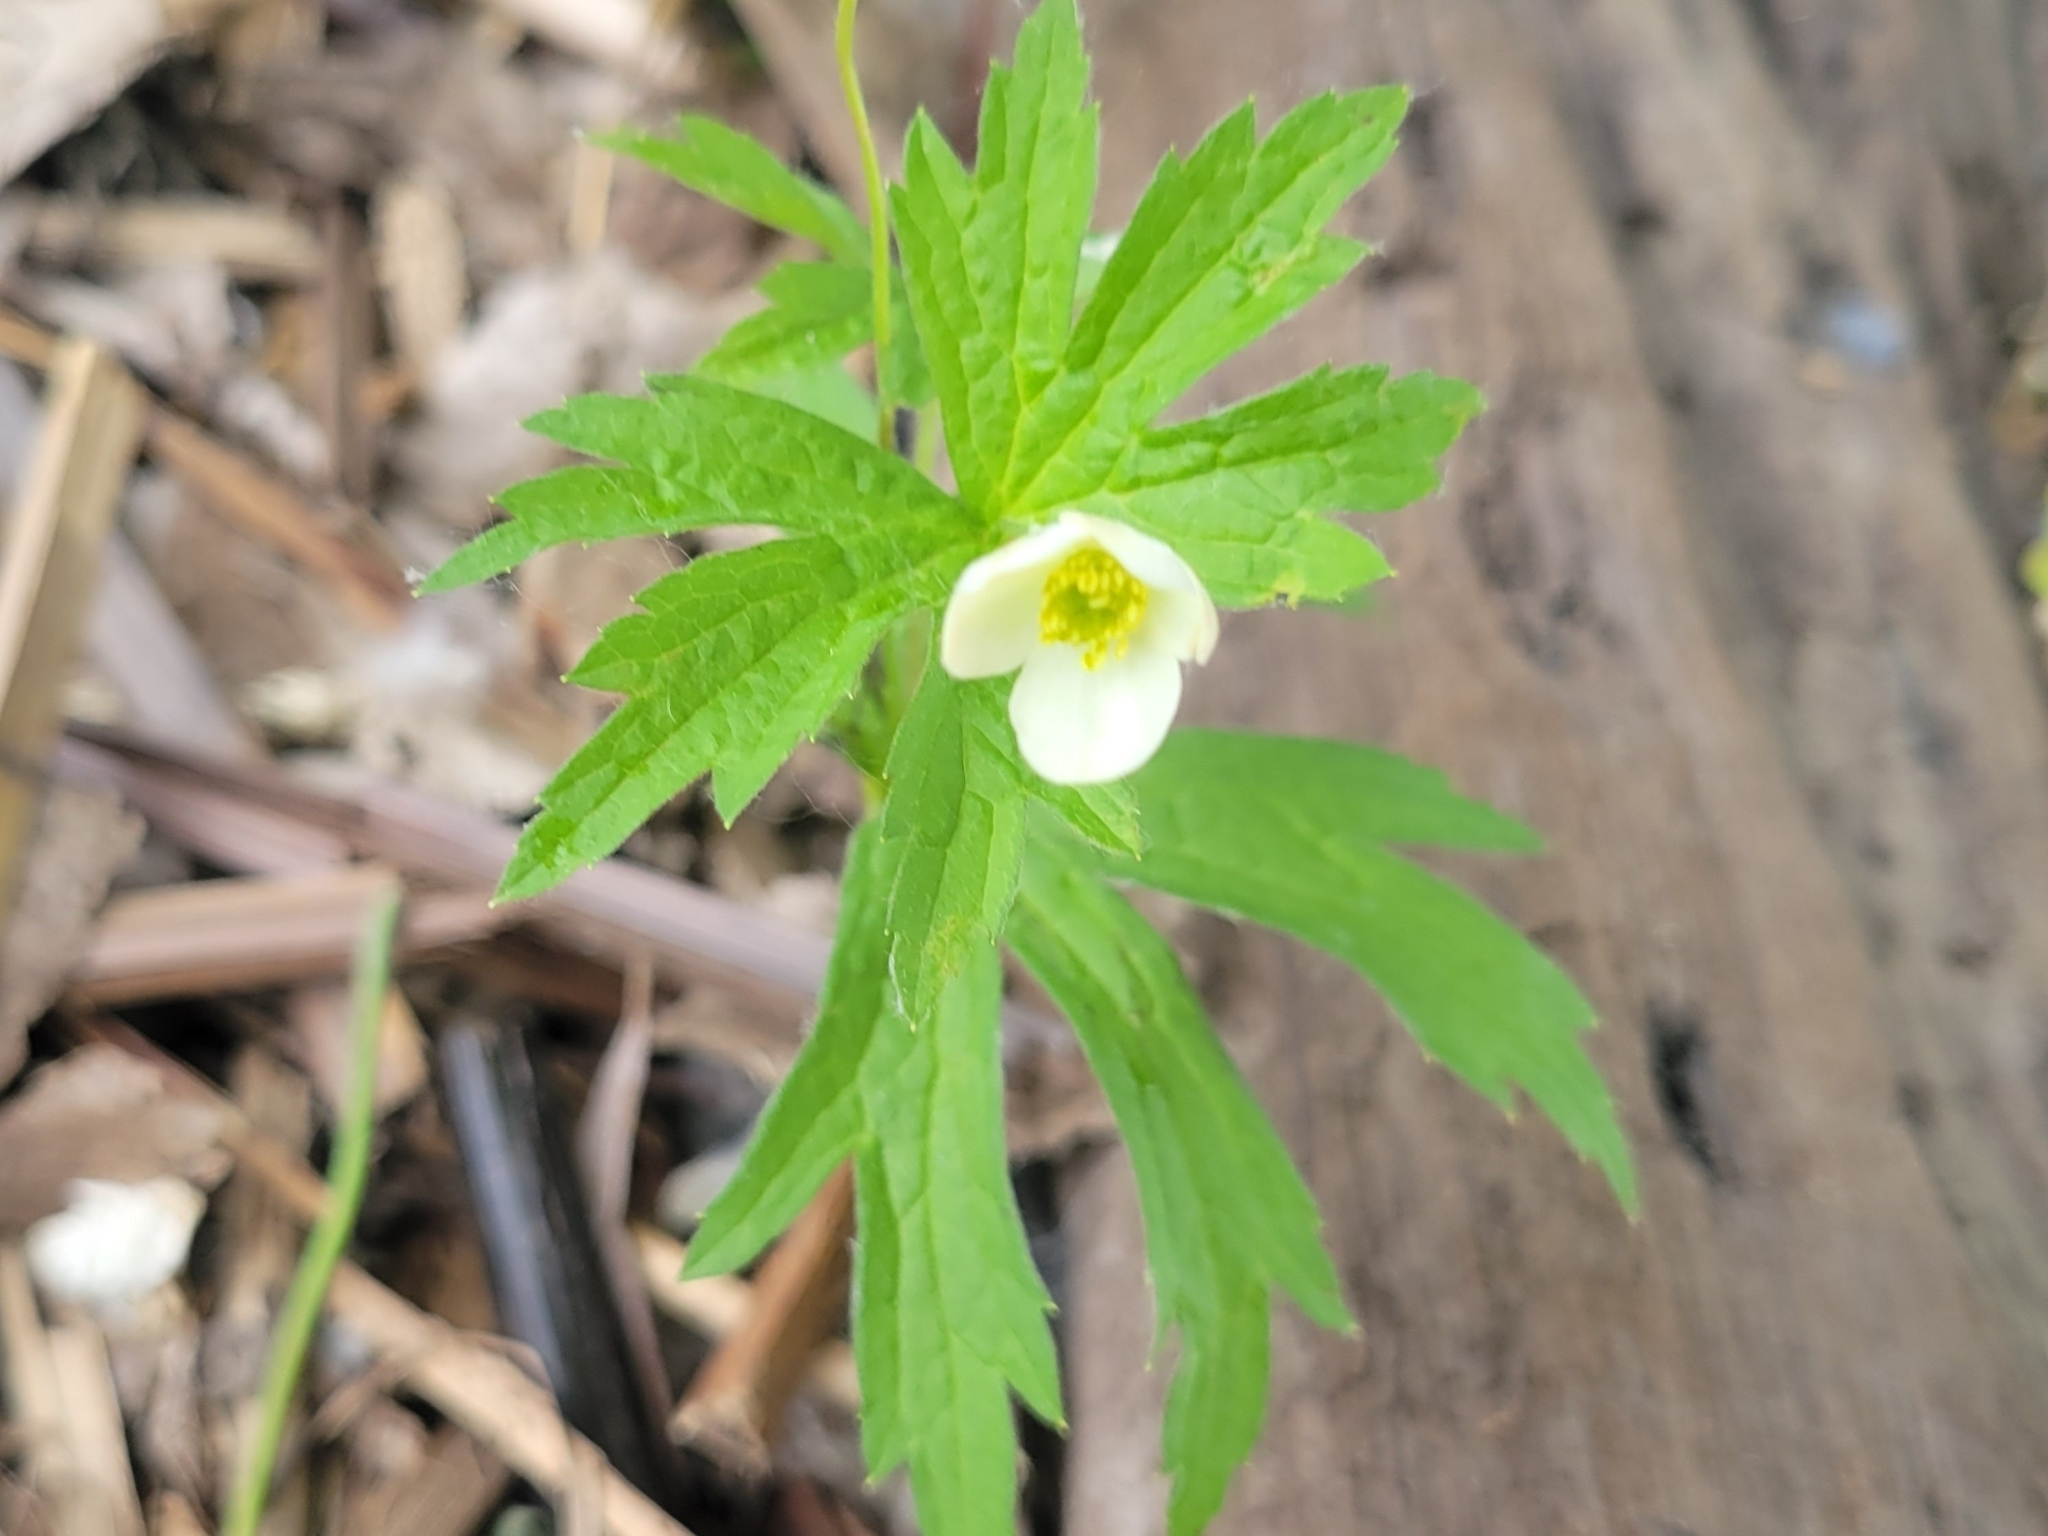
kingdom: Plantae
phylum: Tracheophyta
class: Magnoliopsida
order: Ranunculales
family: Ranunculaceae
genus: Anemonastrum
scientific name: Anemonastrum canadense
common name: Canada anemone
